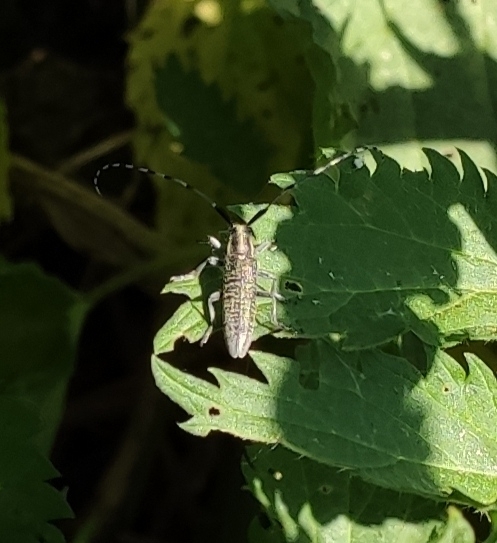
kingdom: Animalia
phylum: Arthropoda
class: Insecta
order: Coleoptera
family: Cerambycidae
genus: Agapanthia
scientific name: Agapanthia villosoviridescens
